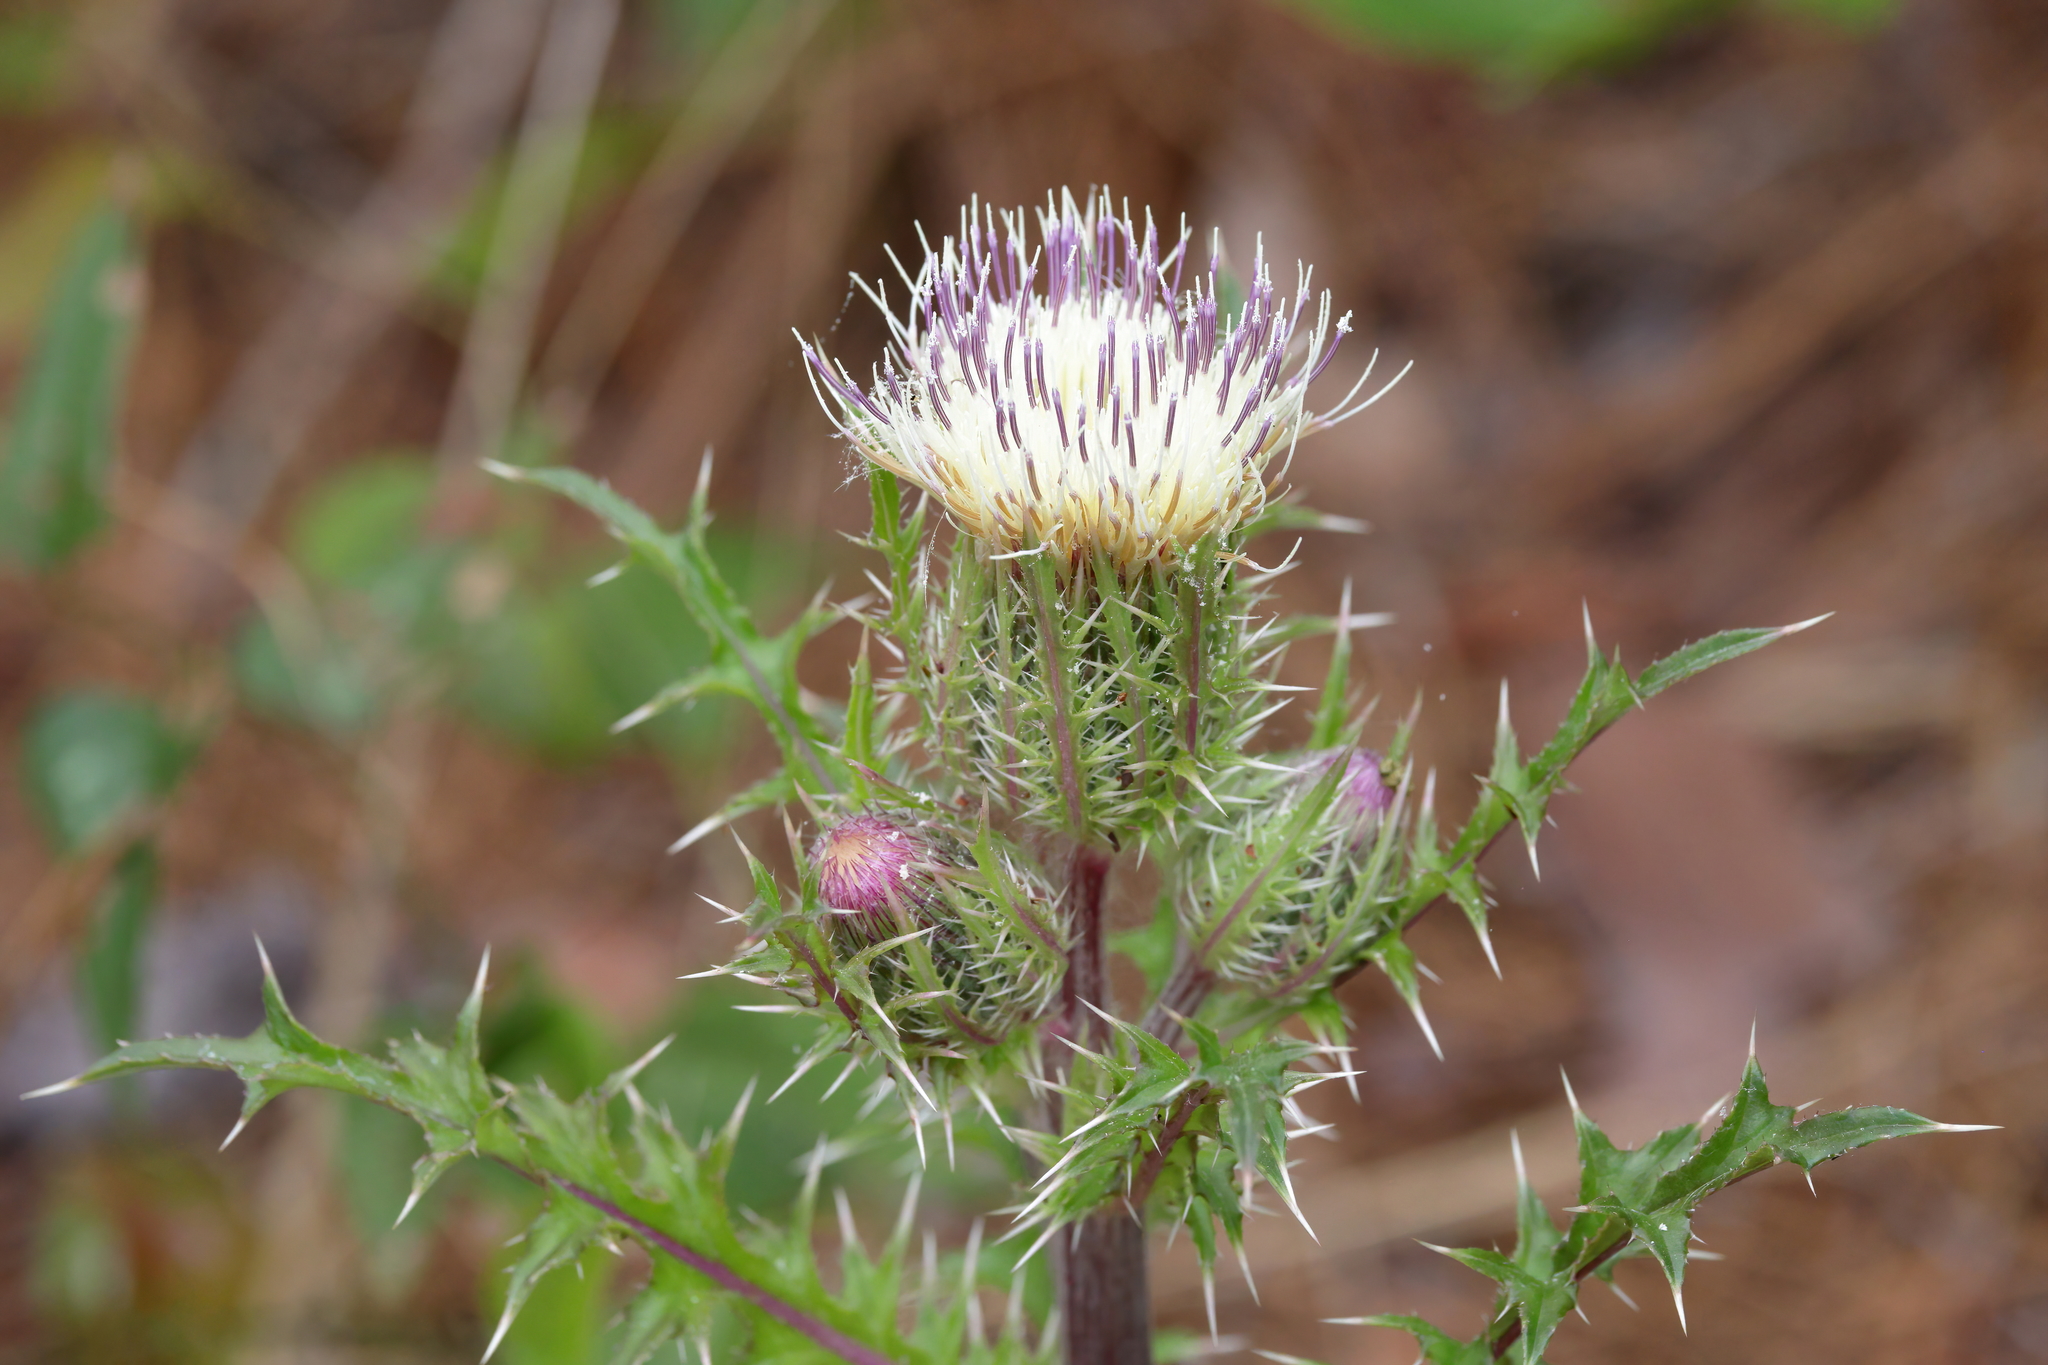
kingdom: Plantae
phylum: Tracheophyta
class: Magnoliopsida
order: Asterales
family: Asteraceae
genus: Cirsium
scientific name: Cirsium horridulum
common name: Bristly thistle
